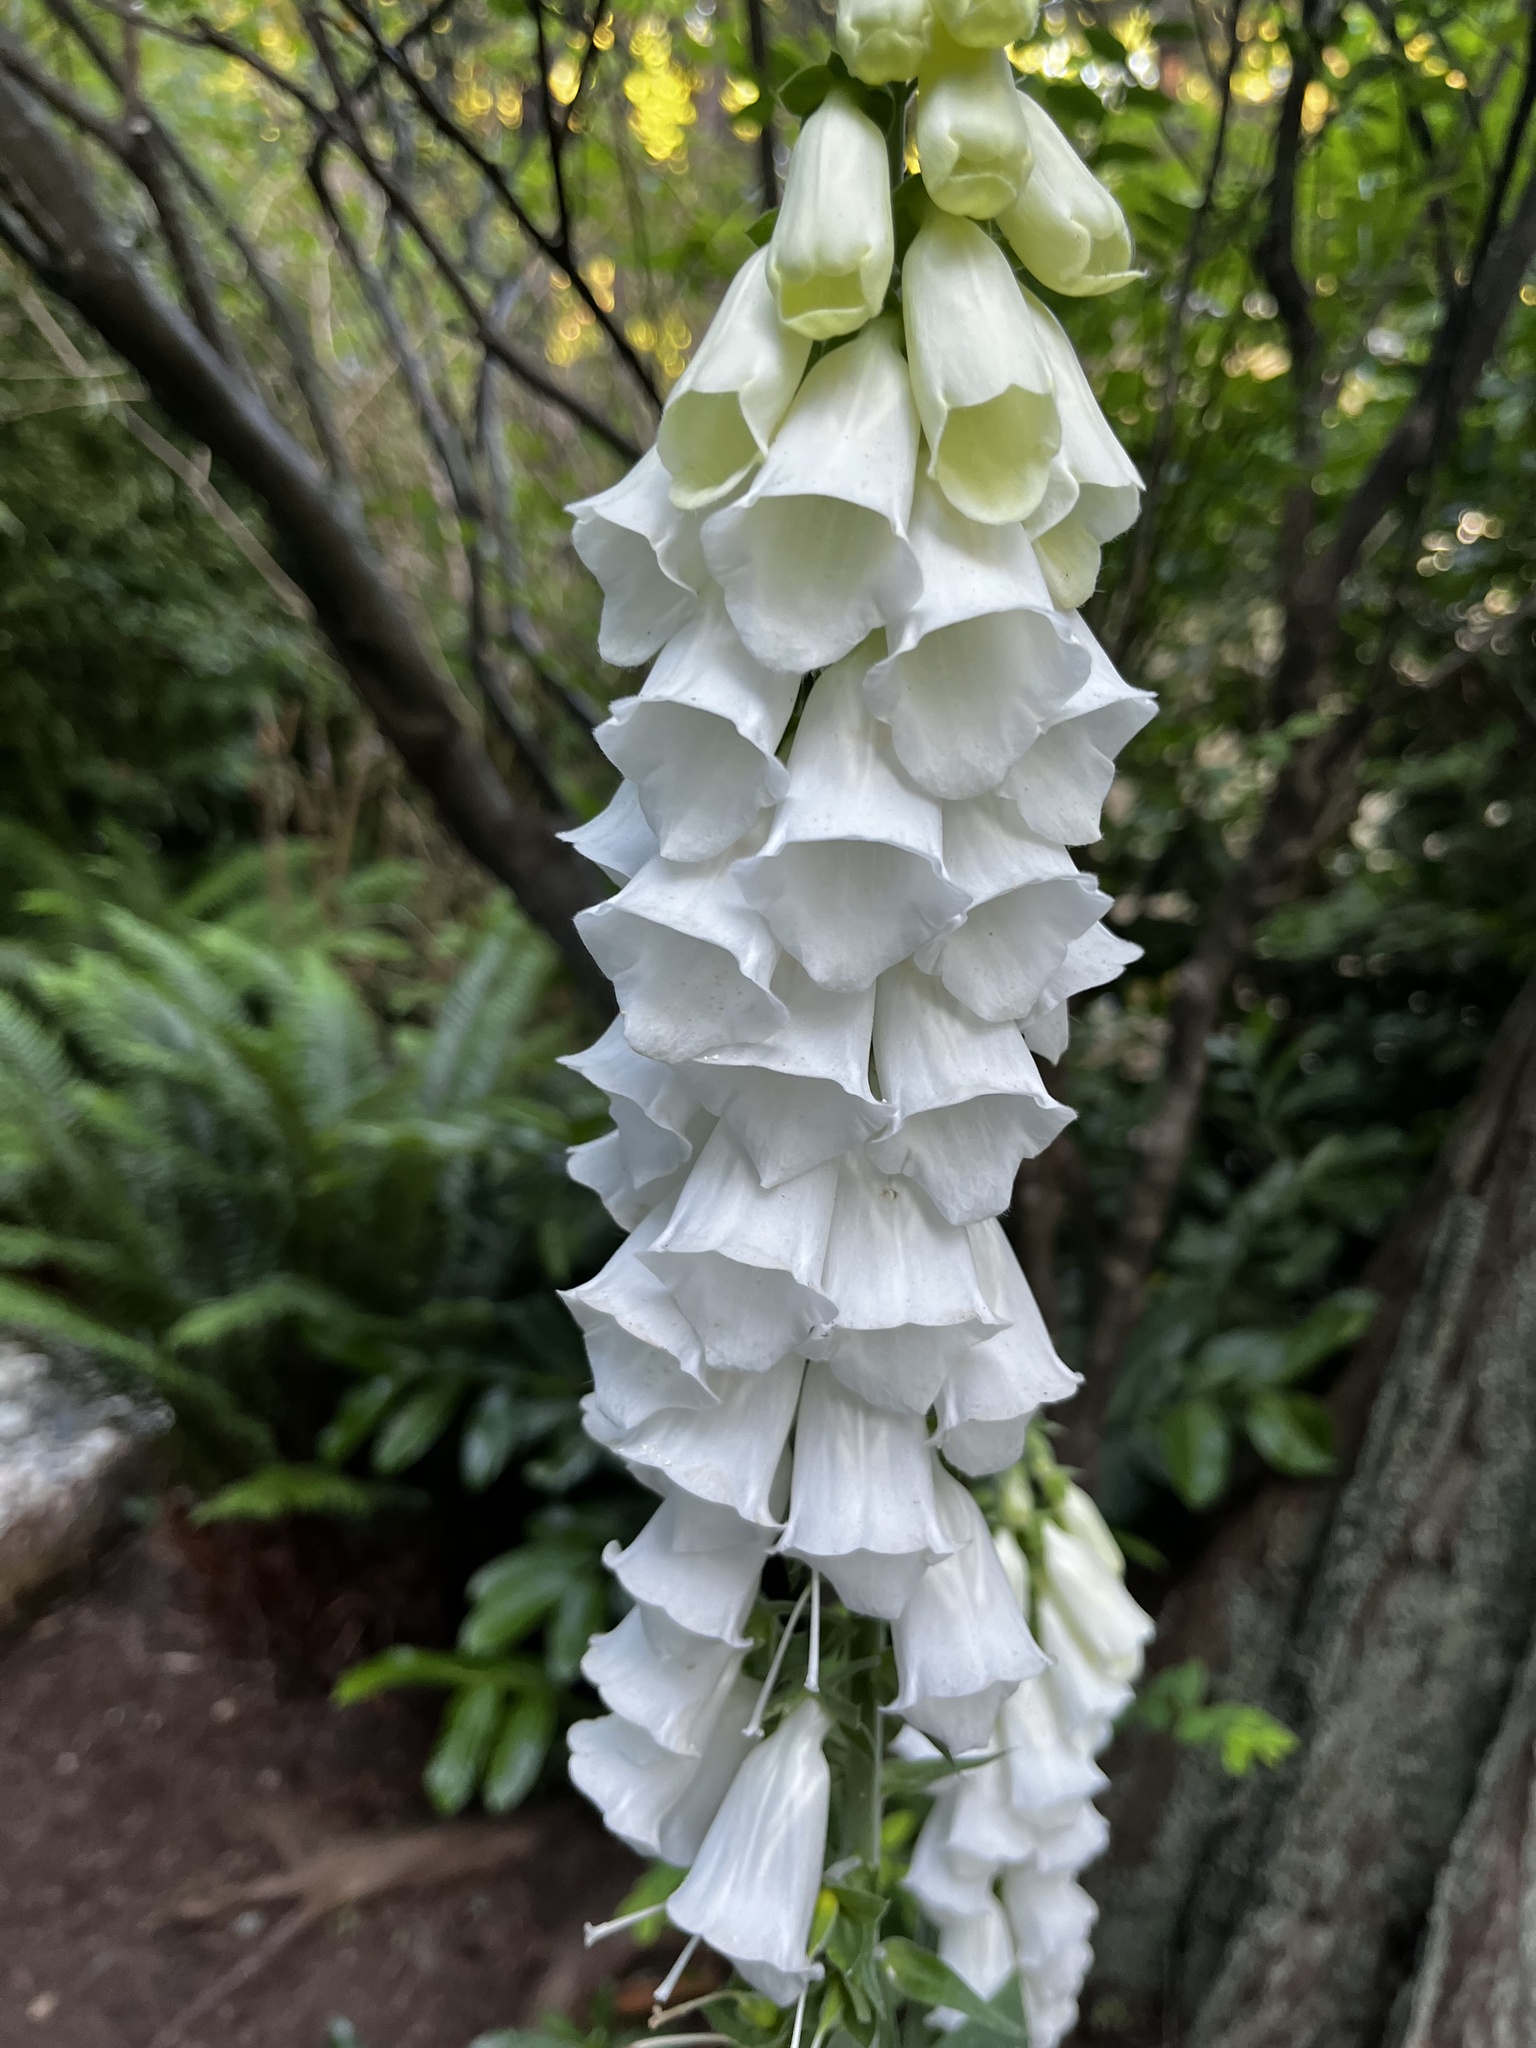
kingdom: Plantae
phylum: Tracheophyta
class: Magnoliopsida
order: Lamiales
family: Plantaginaceae
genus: Digitalis
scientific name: Digitalis purpurea
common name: Foxglove
